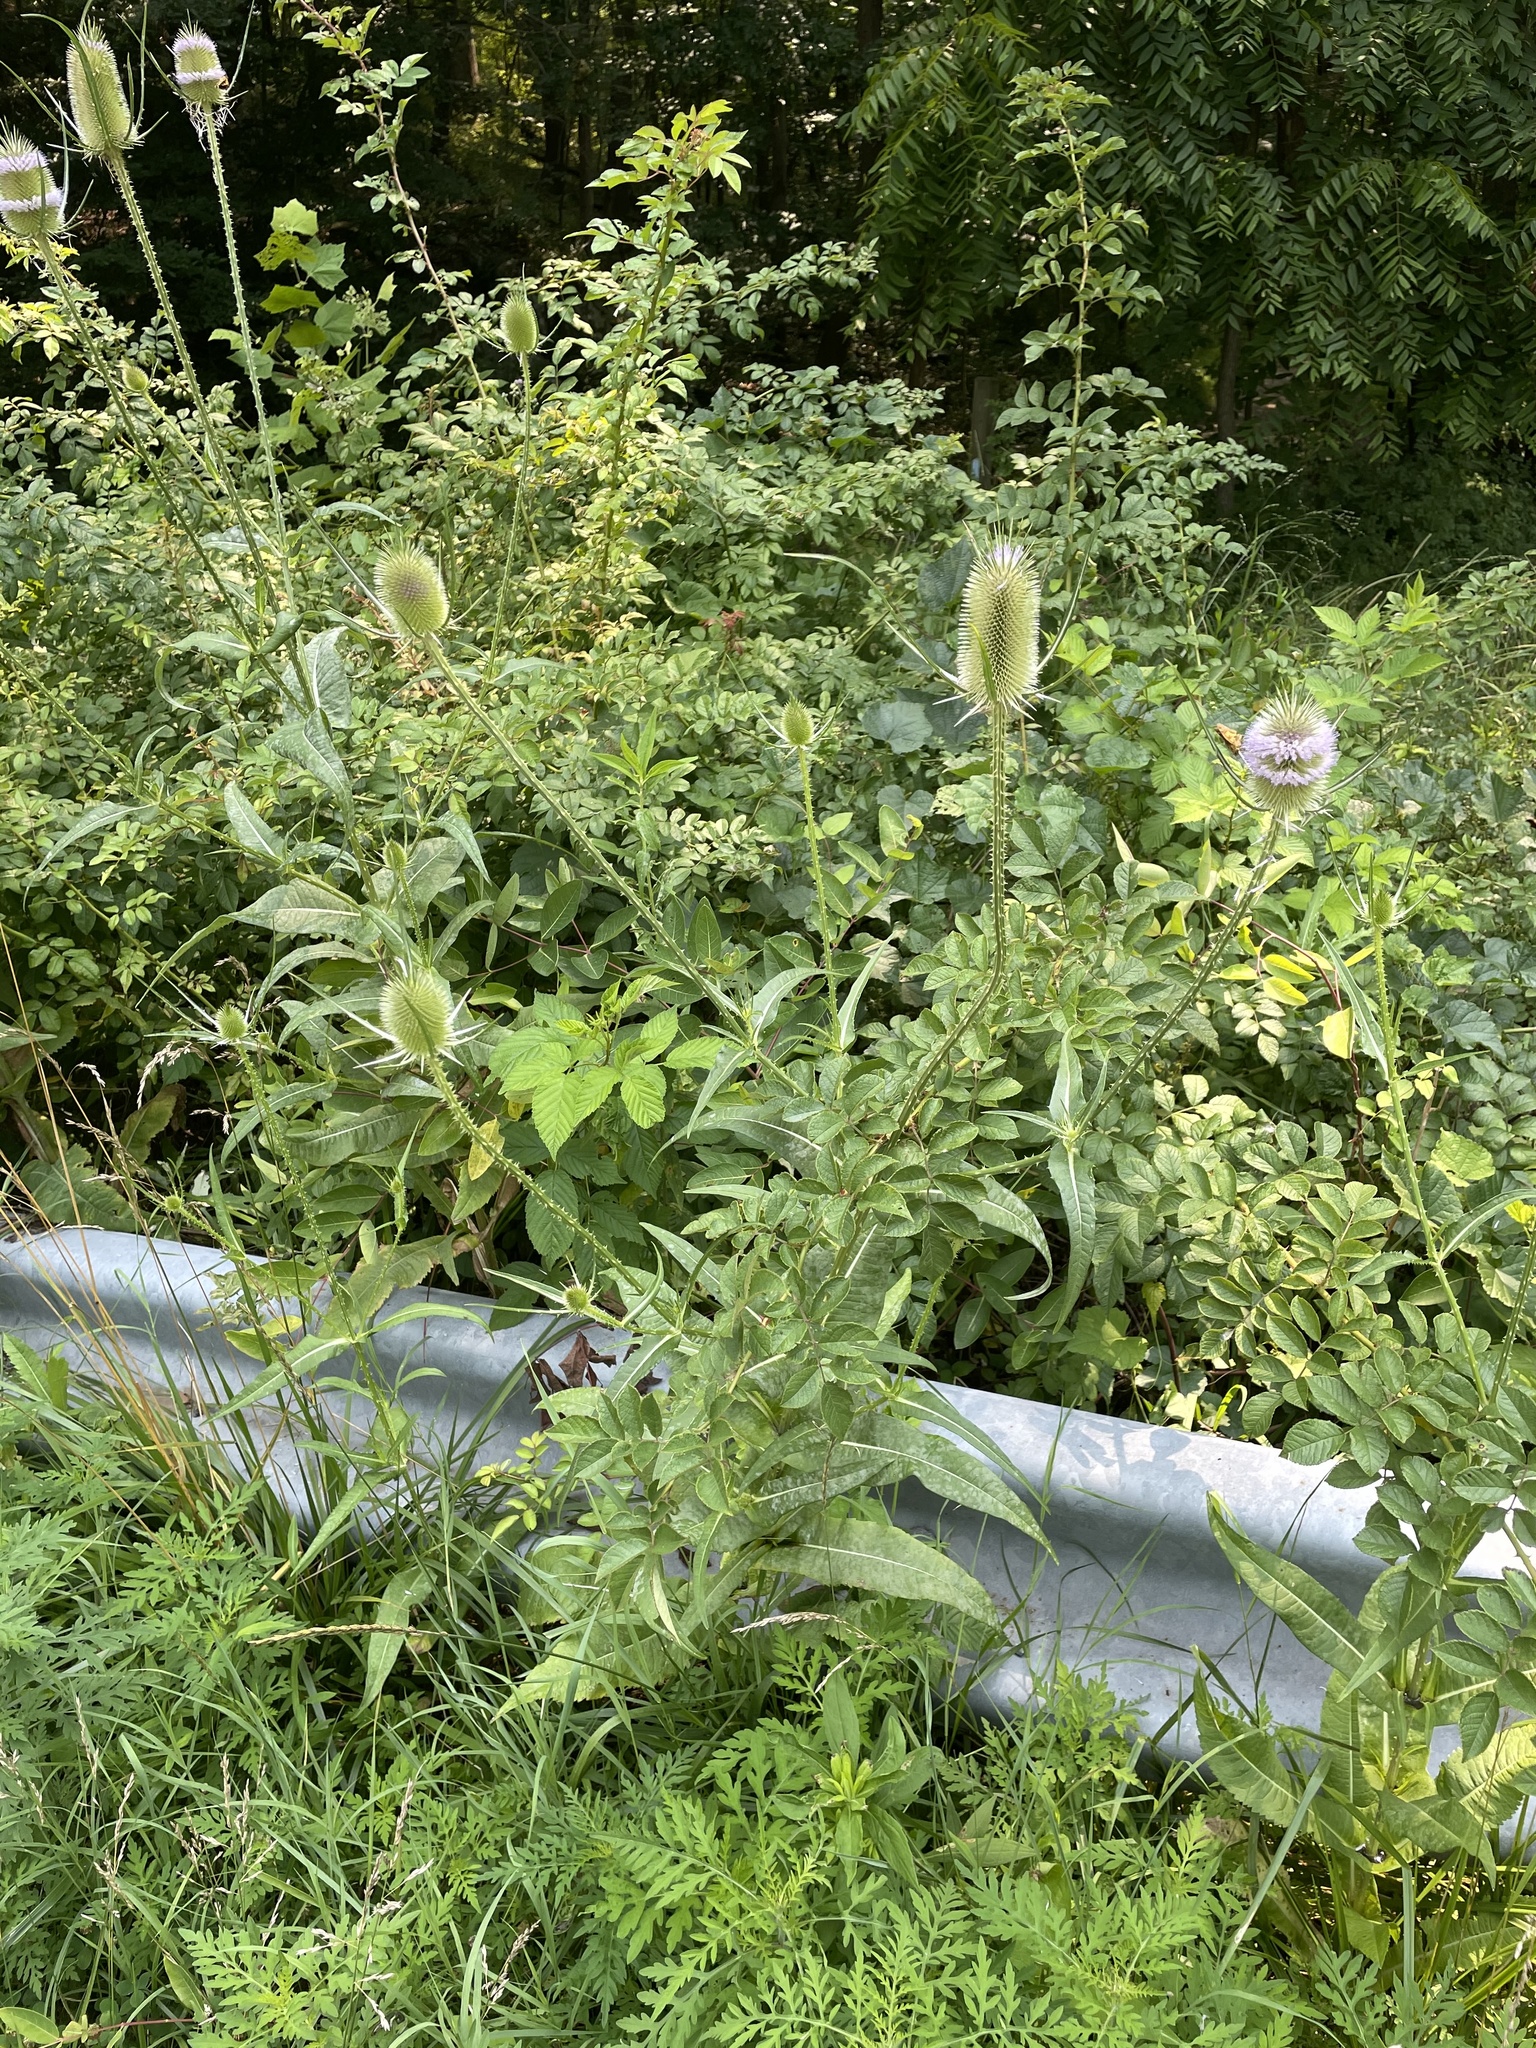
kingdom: Animalia
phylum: Arthropoda
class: Insecta
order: Lepidoptera
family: Hesperiidae
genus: Epargyreus
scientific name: Epargyreus clarus
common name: Silver-spotted skipper
